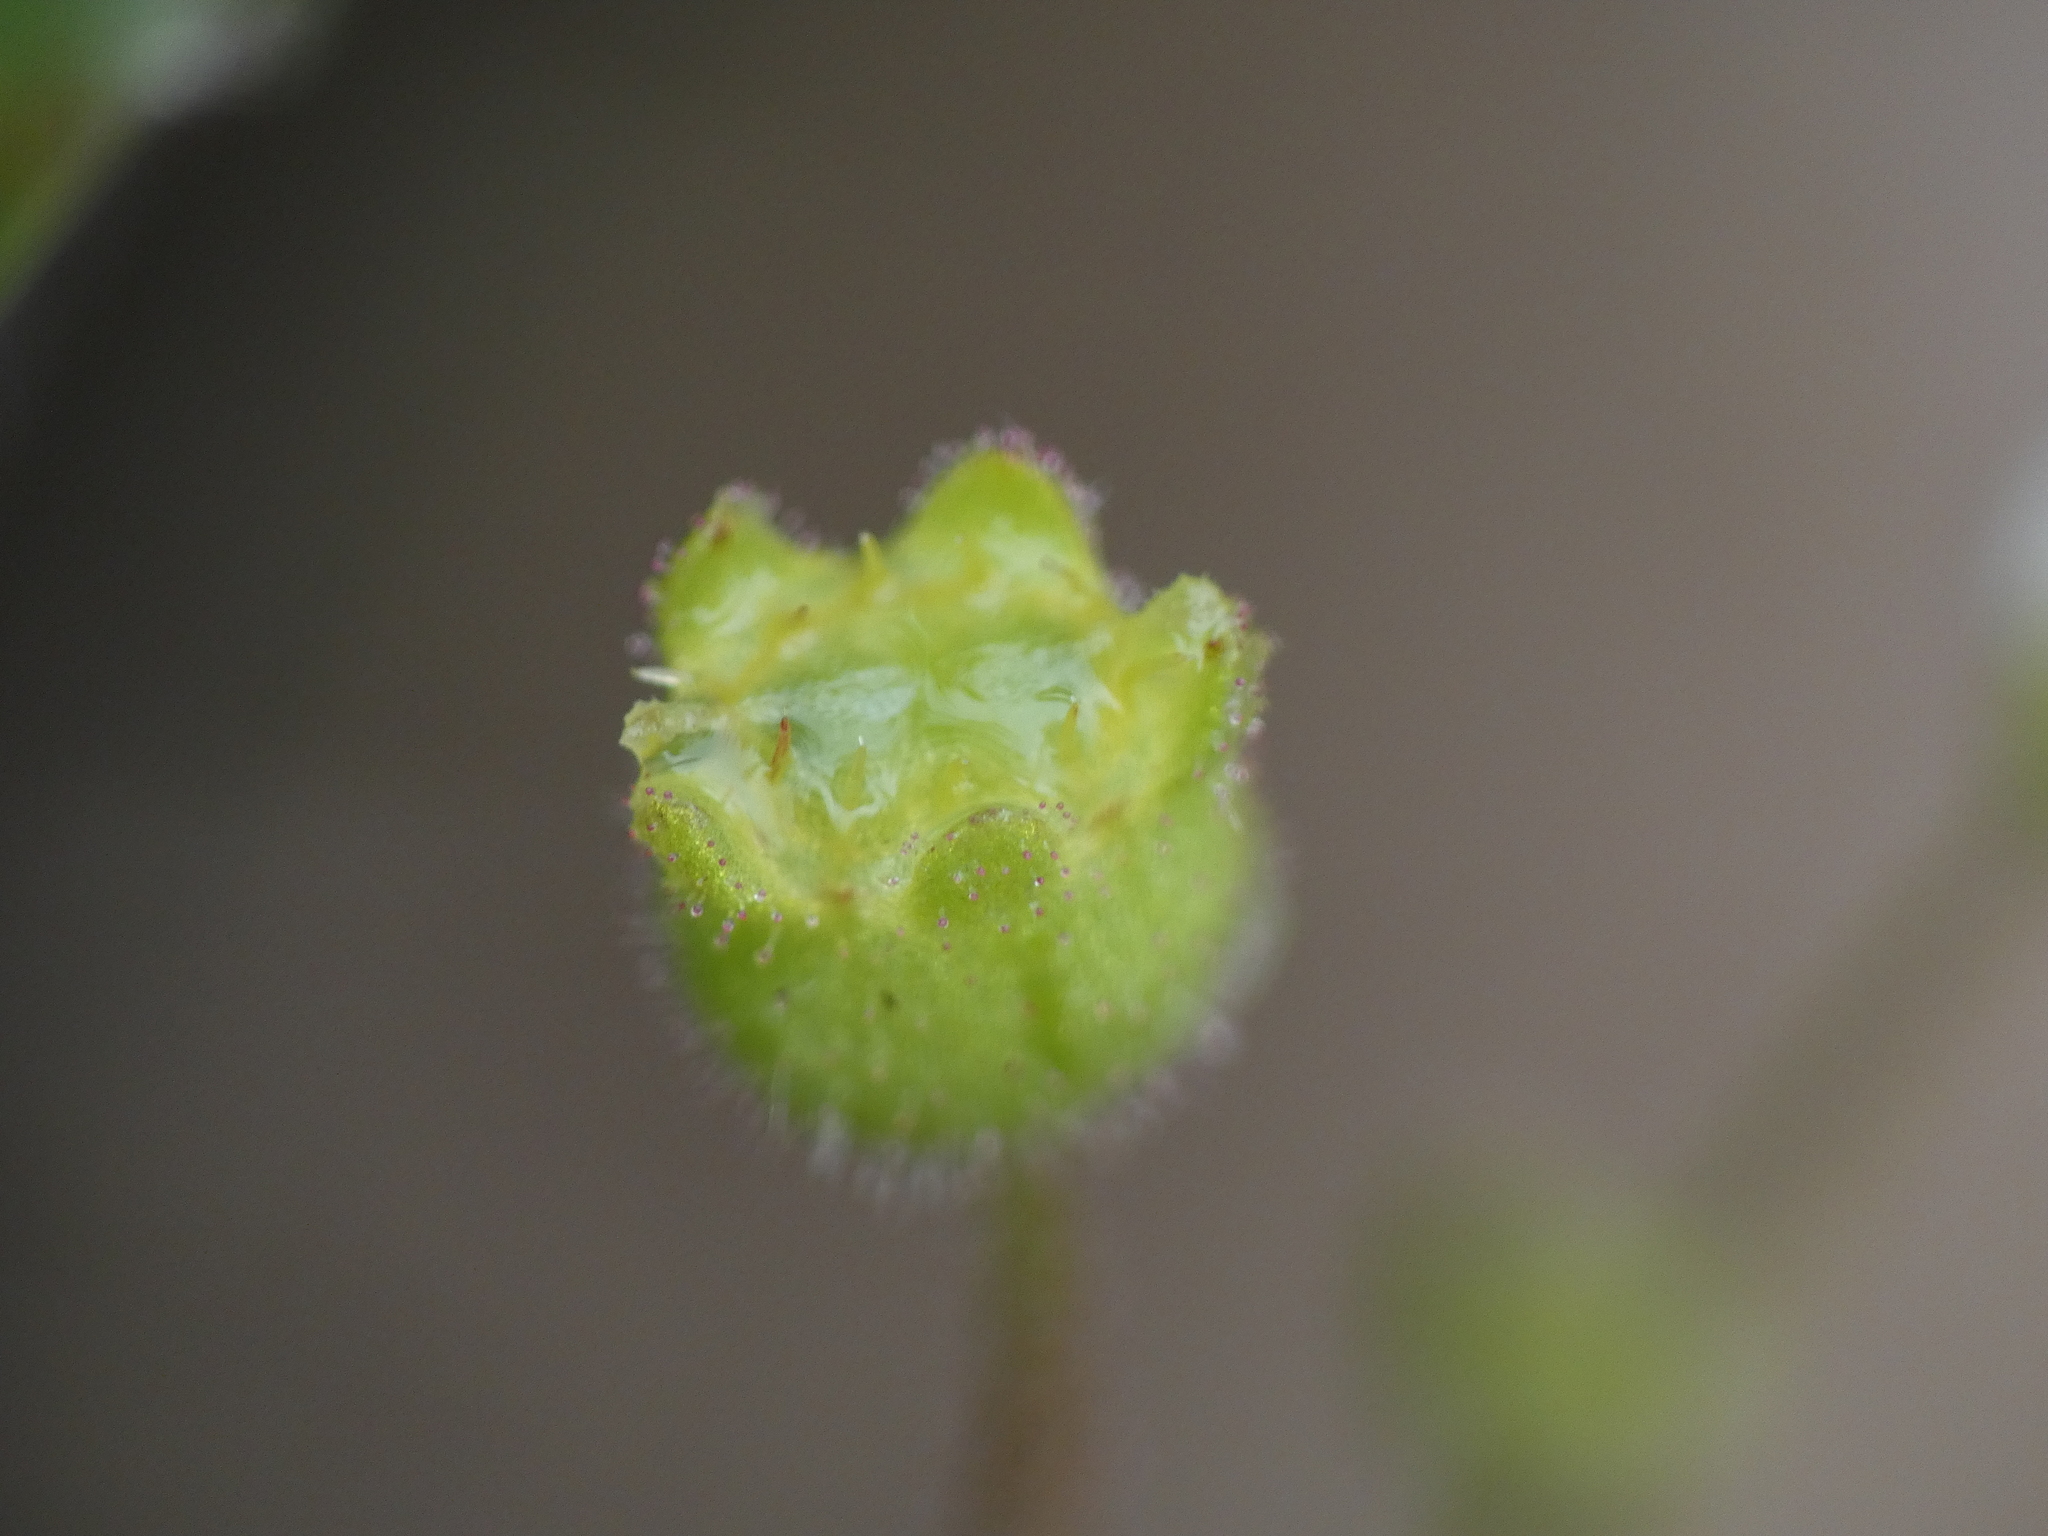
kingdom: Plantae
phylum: Tracheophyta
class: Magnoliopsida
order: Saxifragales
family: Saxifragaceae
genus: Saxifraga
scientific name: Saxifraga tridactylites
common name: Rue-leaved saxifrage
